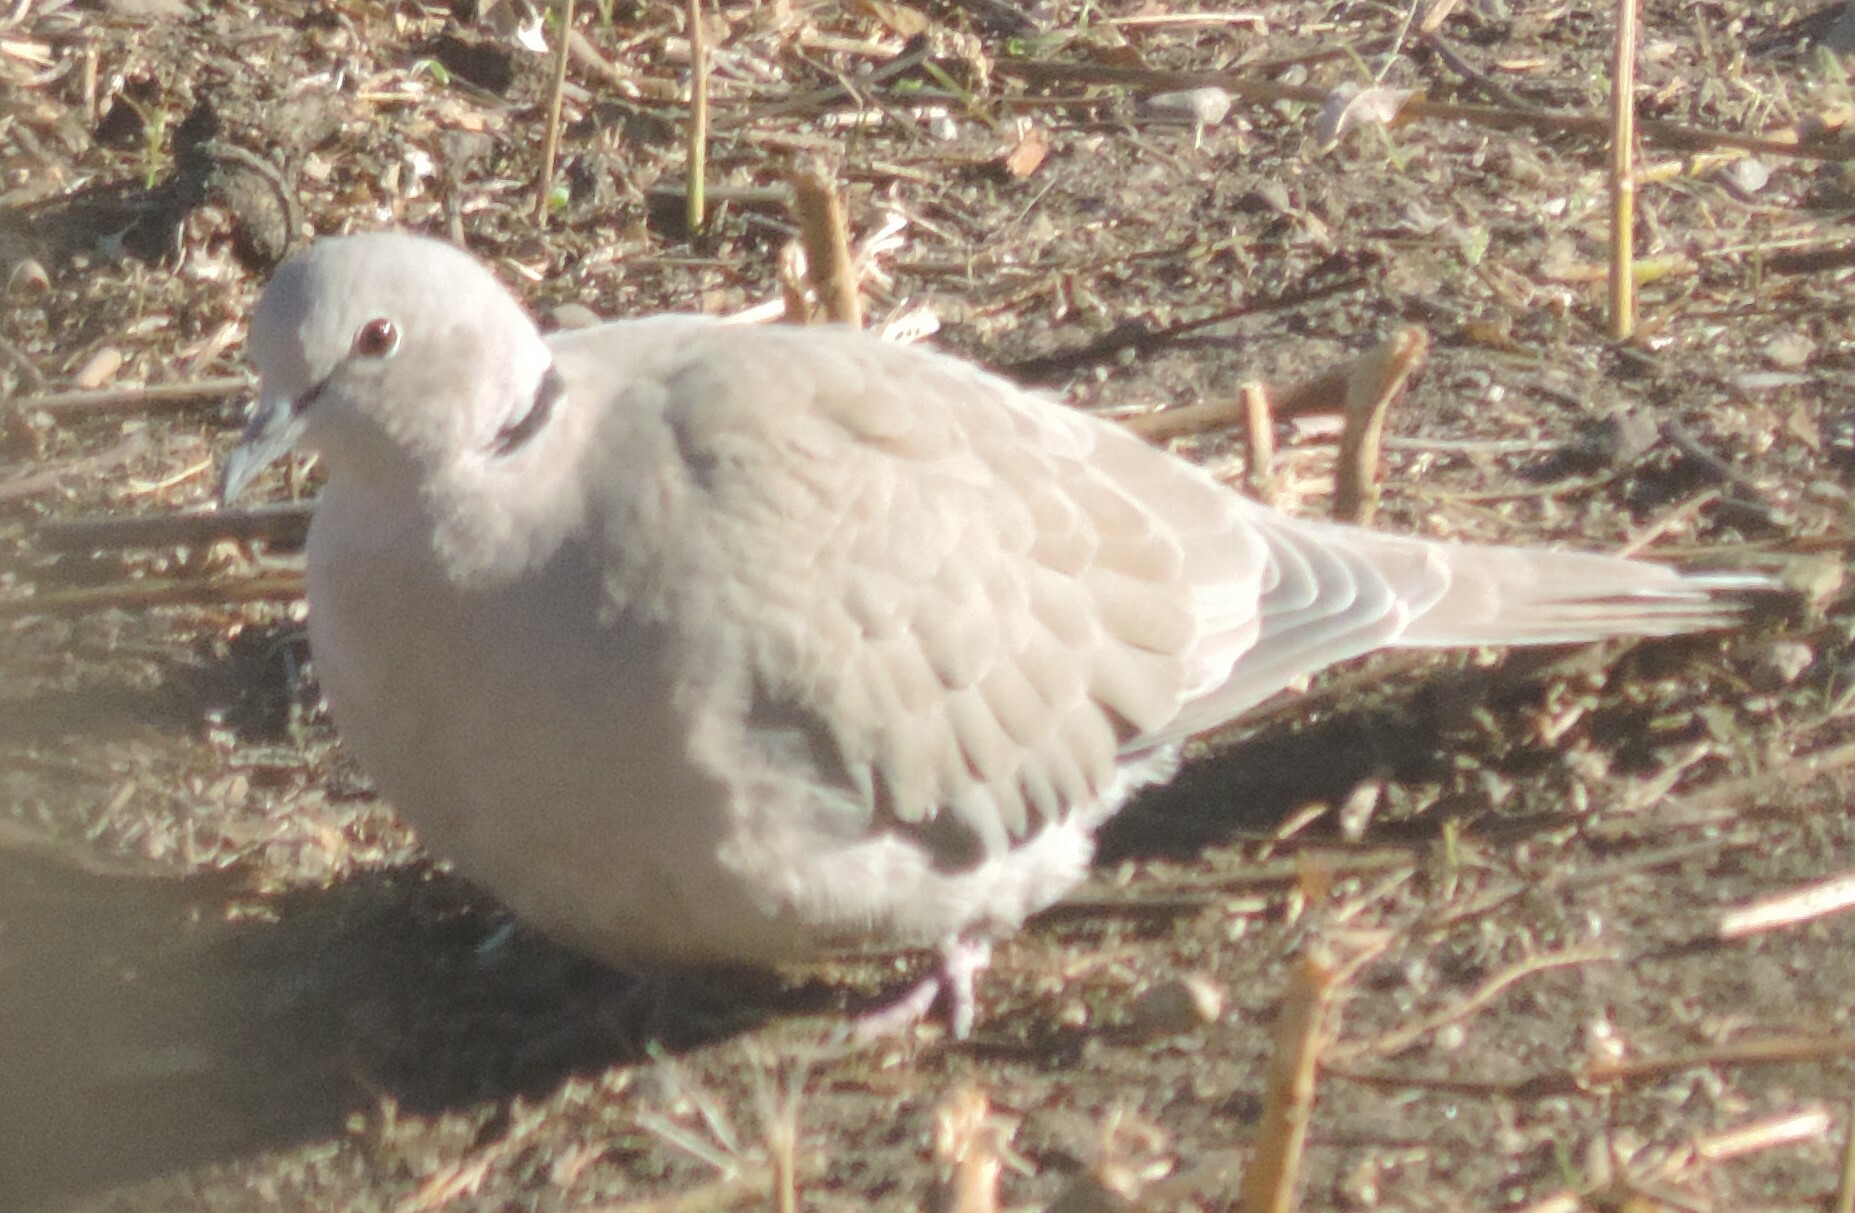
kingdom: Animalia
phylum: Chordata
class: Aves
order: Columbiformes
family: Columbidae
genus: Streptopelia
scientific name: Streptopelia decaocto
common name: Eurasian collared dove
